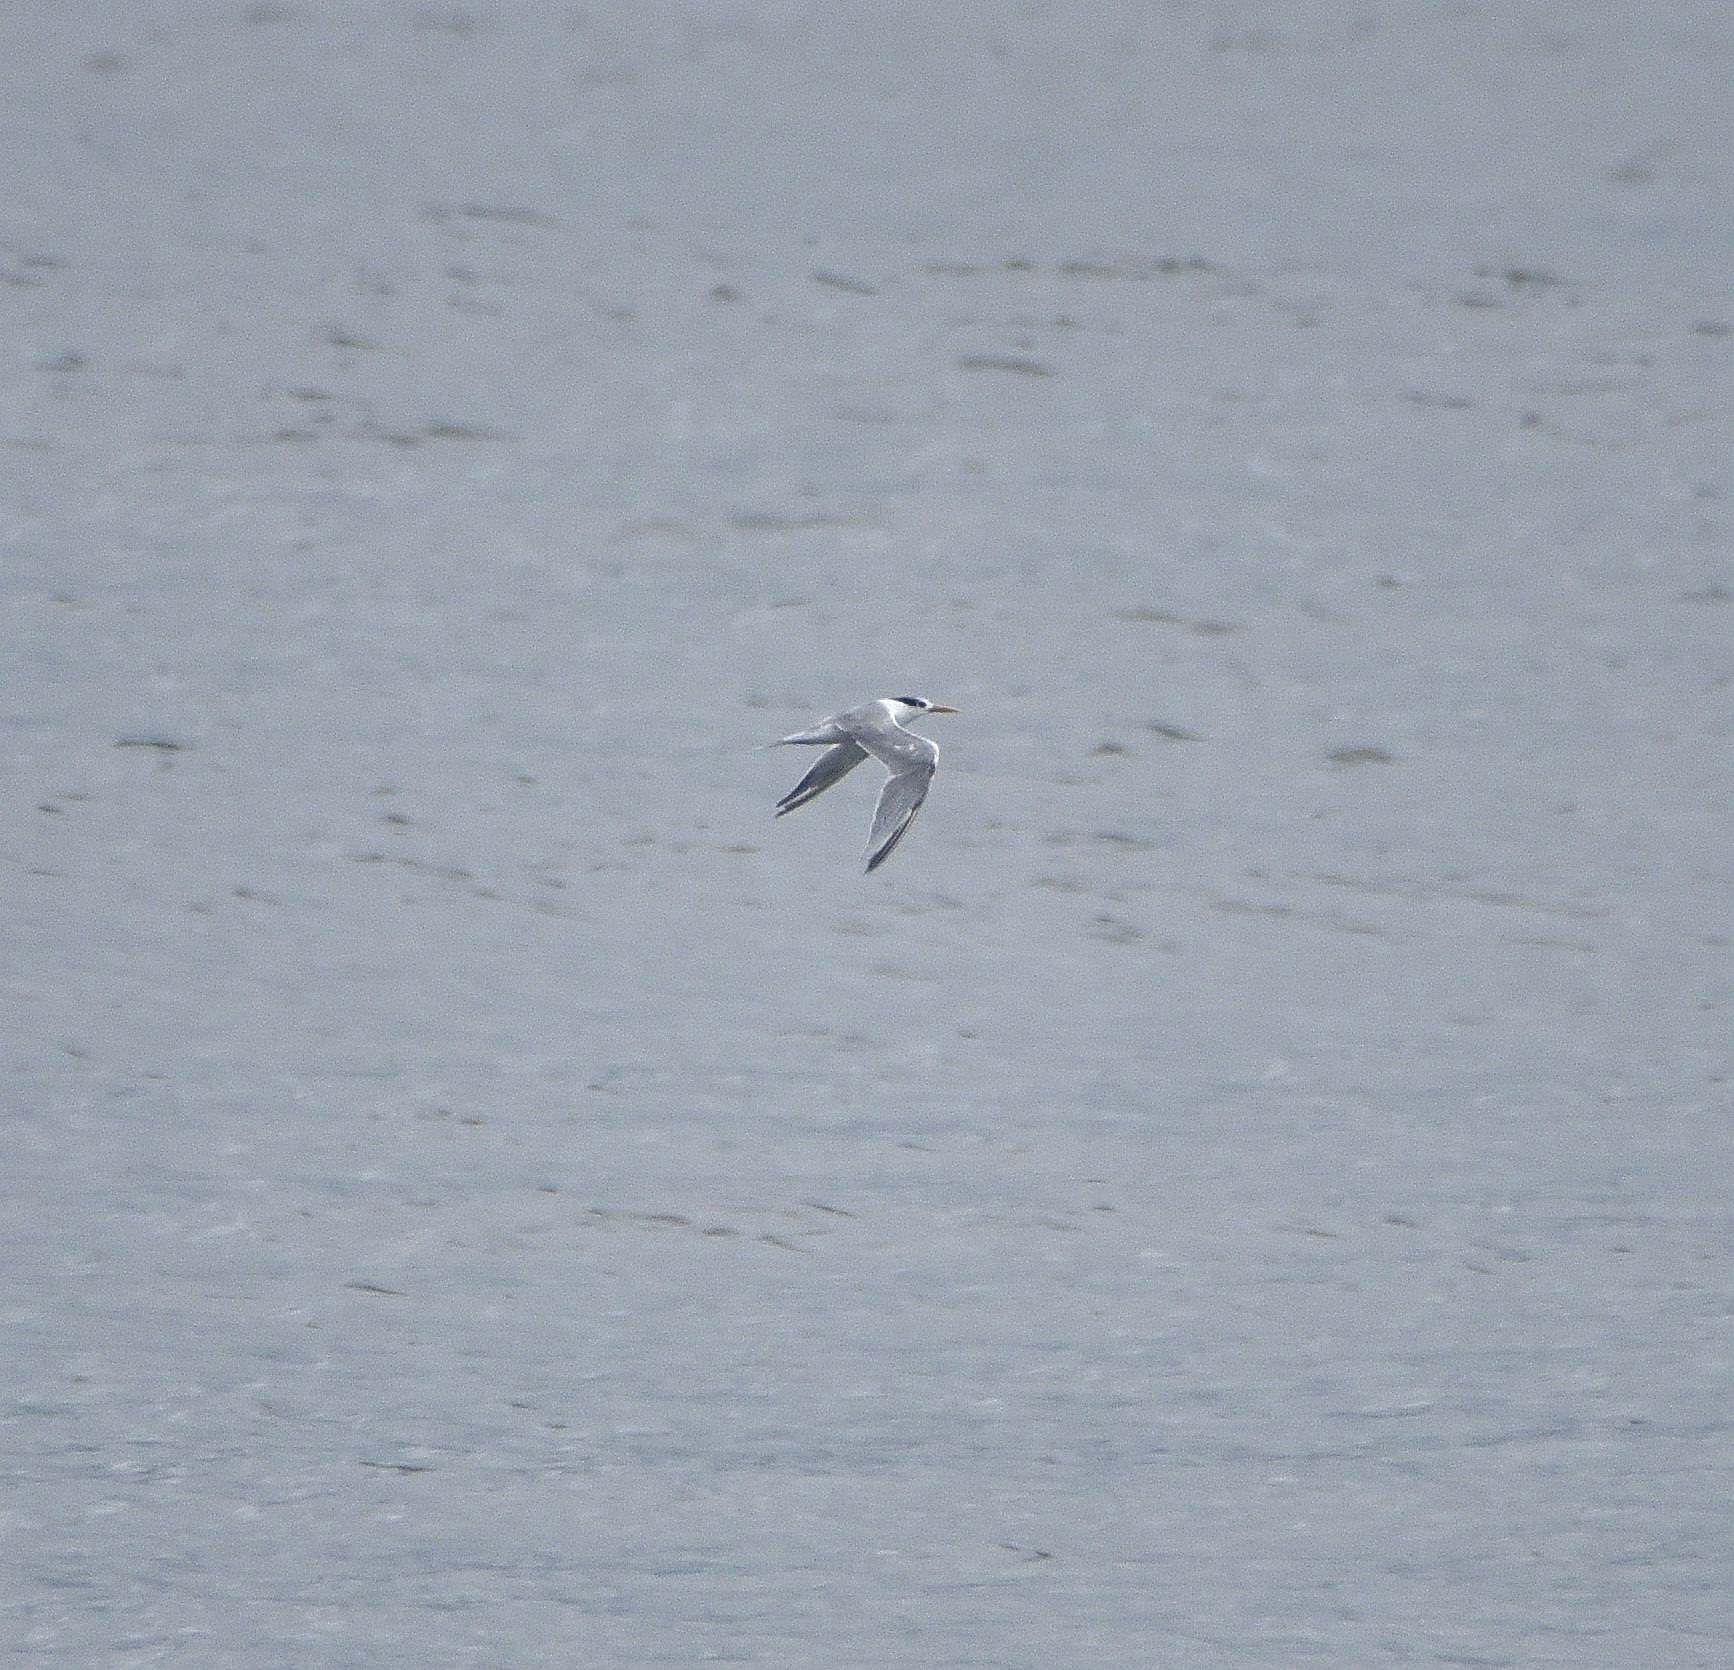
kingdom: Animalia
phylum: Chordata
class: Aves
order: Charadriiformes
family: Laridae
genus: Thalasseus
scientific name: Thalasseus bergii
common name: Greater crested tern
